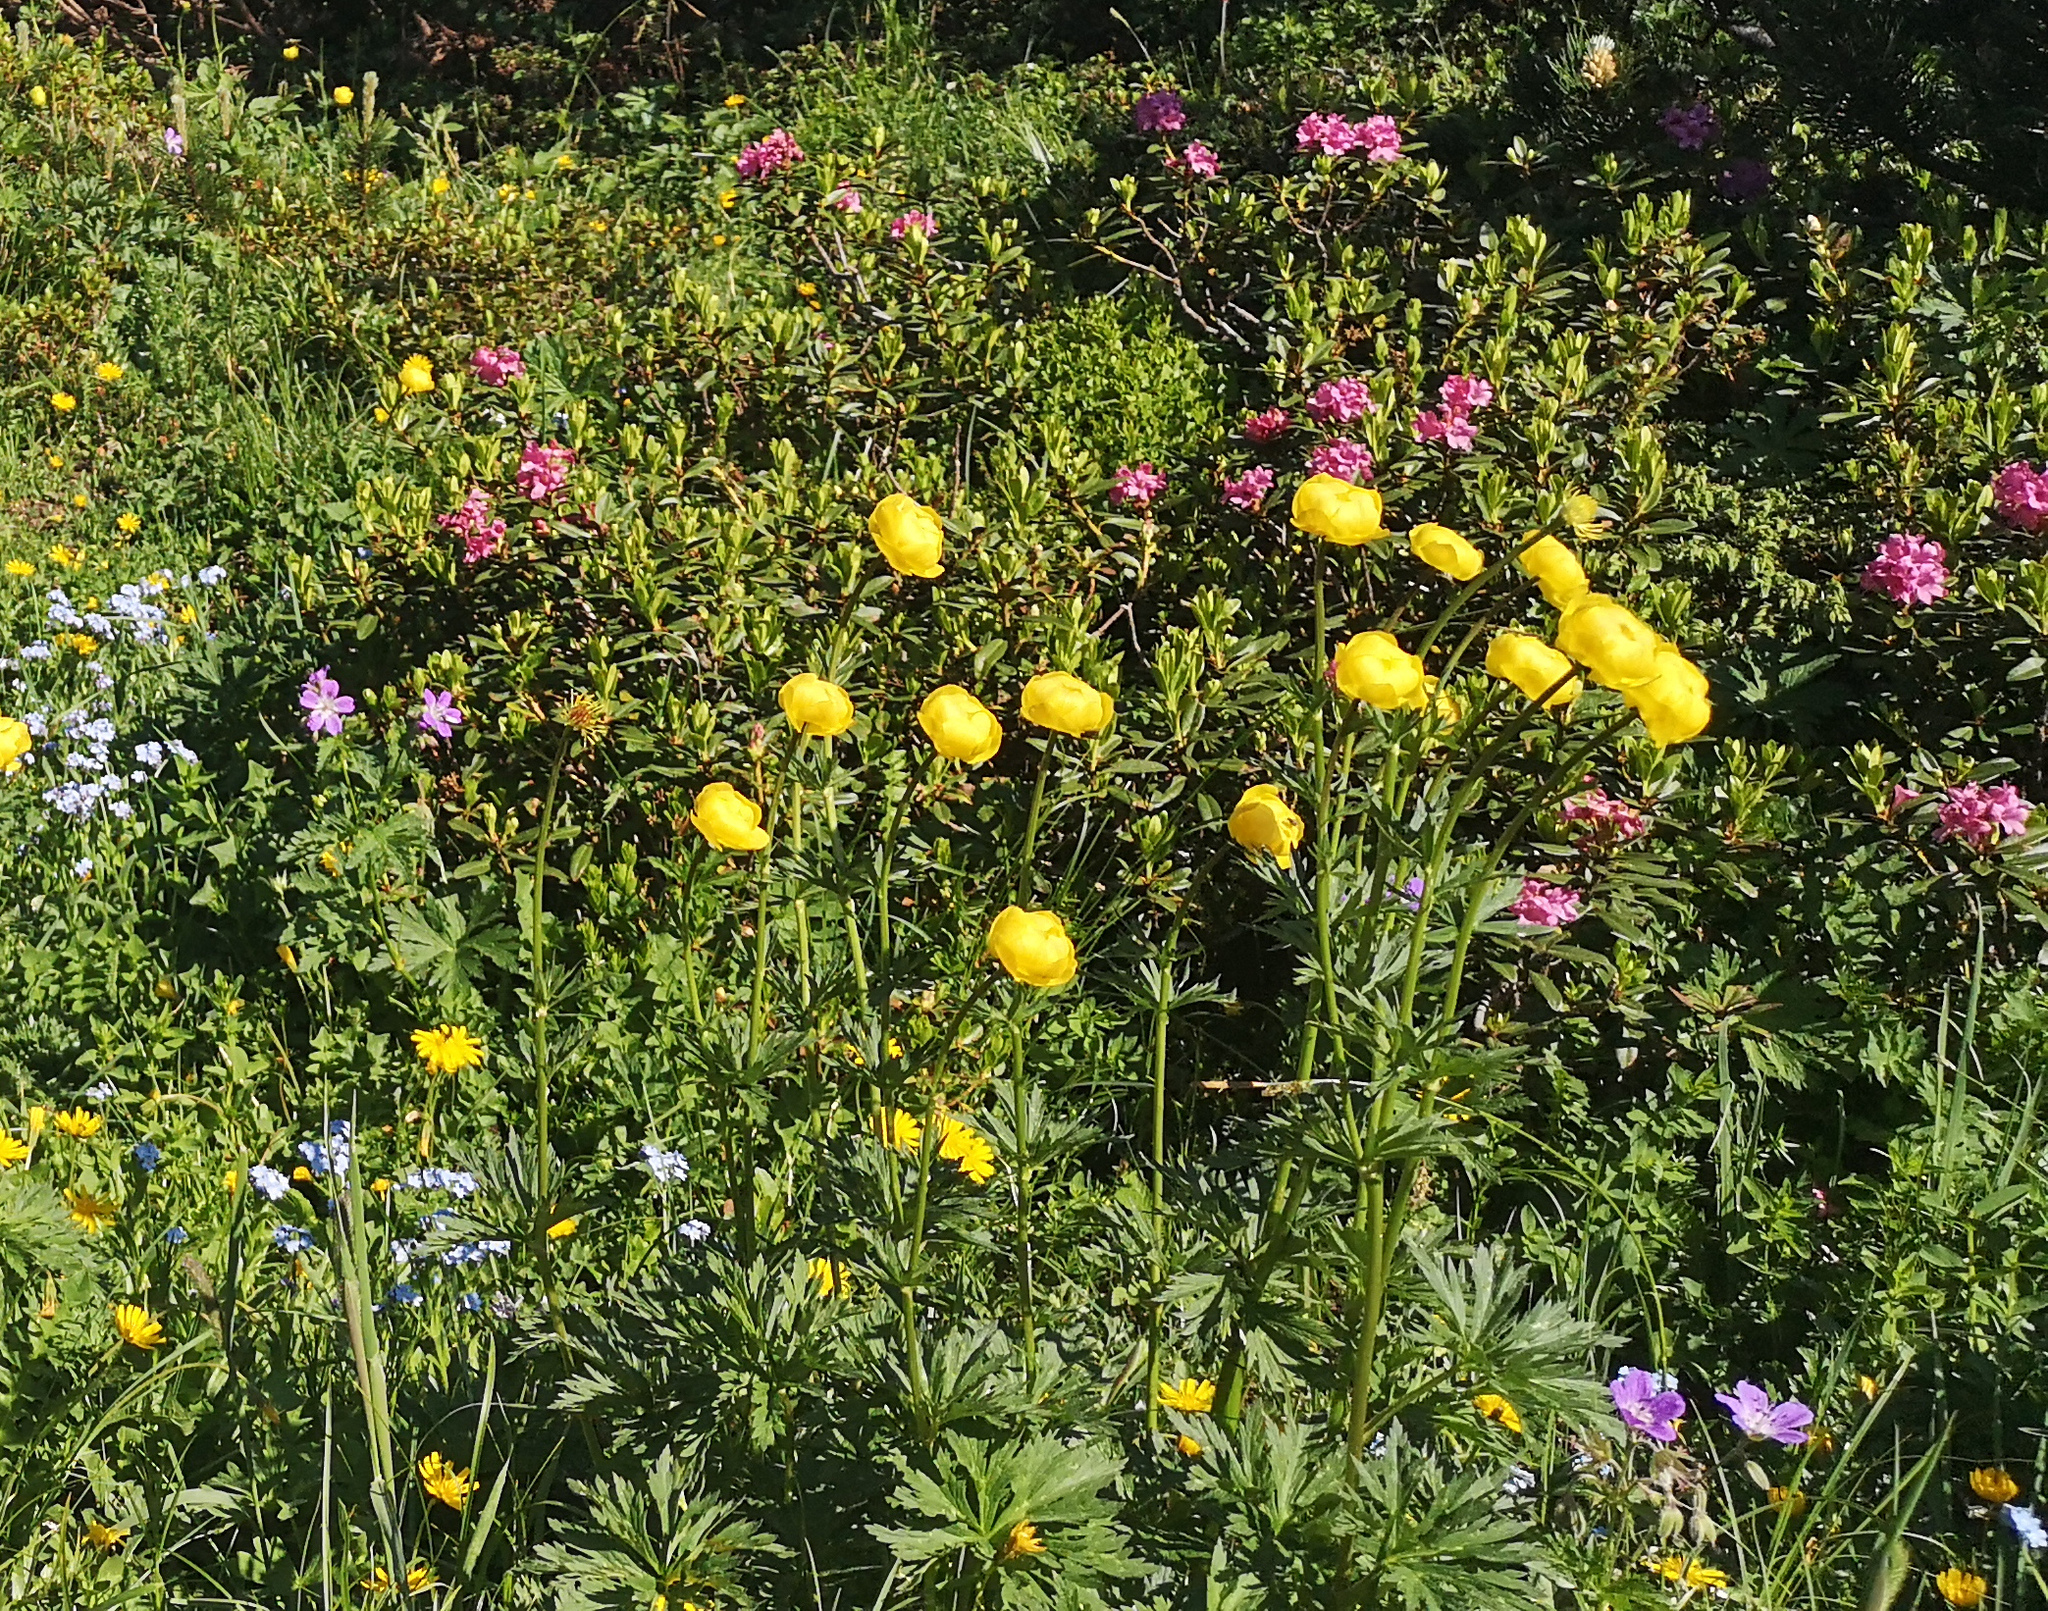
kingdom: Plantae
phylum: Tracheophyta
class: Magnoliopsida
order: Ranunculales
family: Ranunculaceae
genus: Trollius
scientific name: Trollius europaeus
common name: European globeflower
